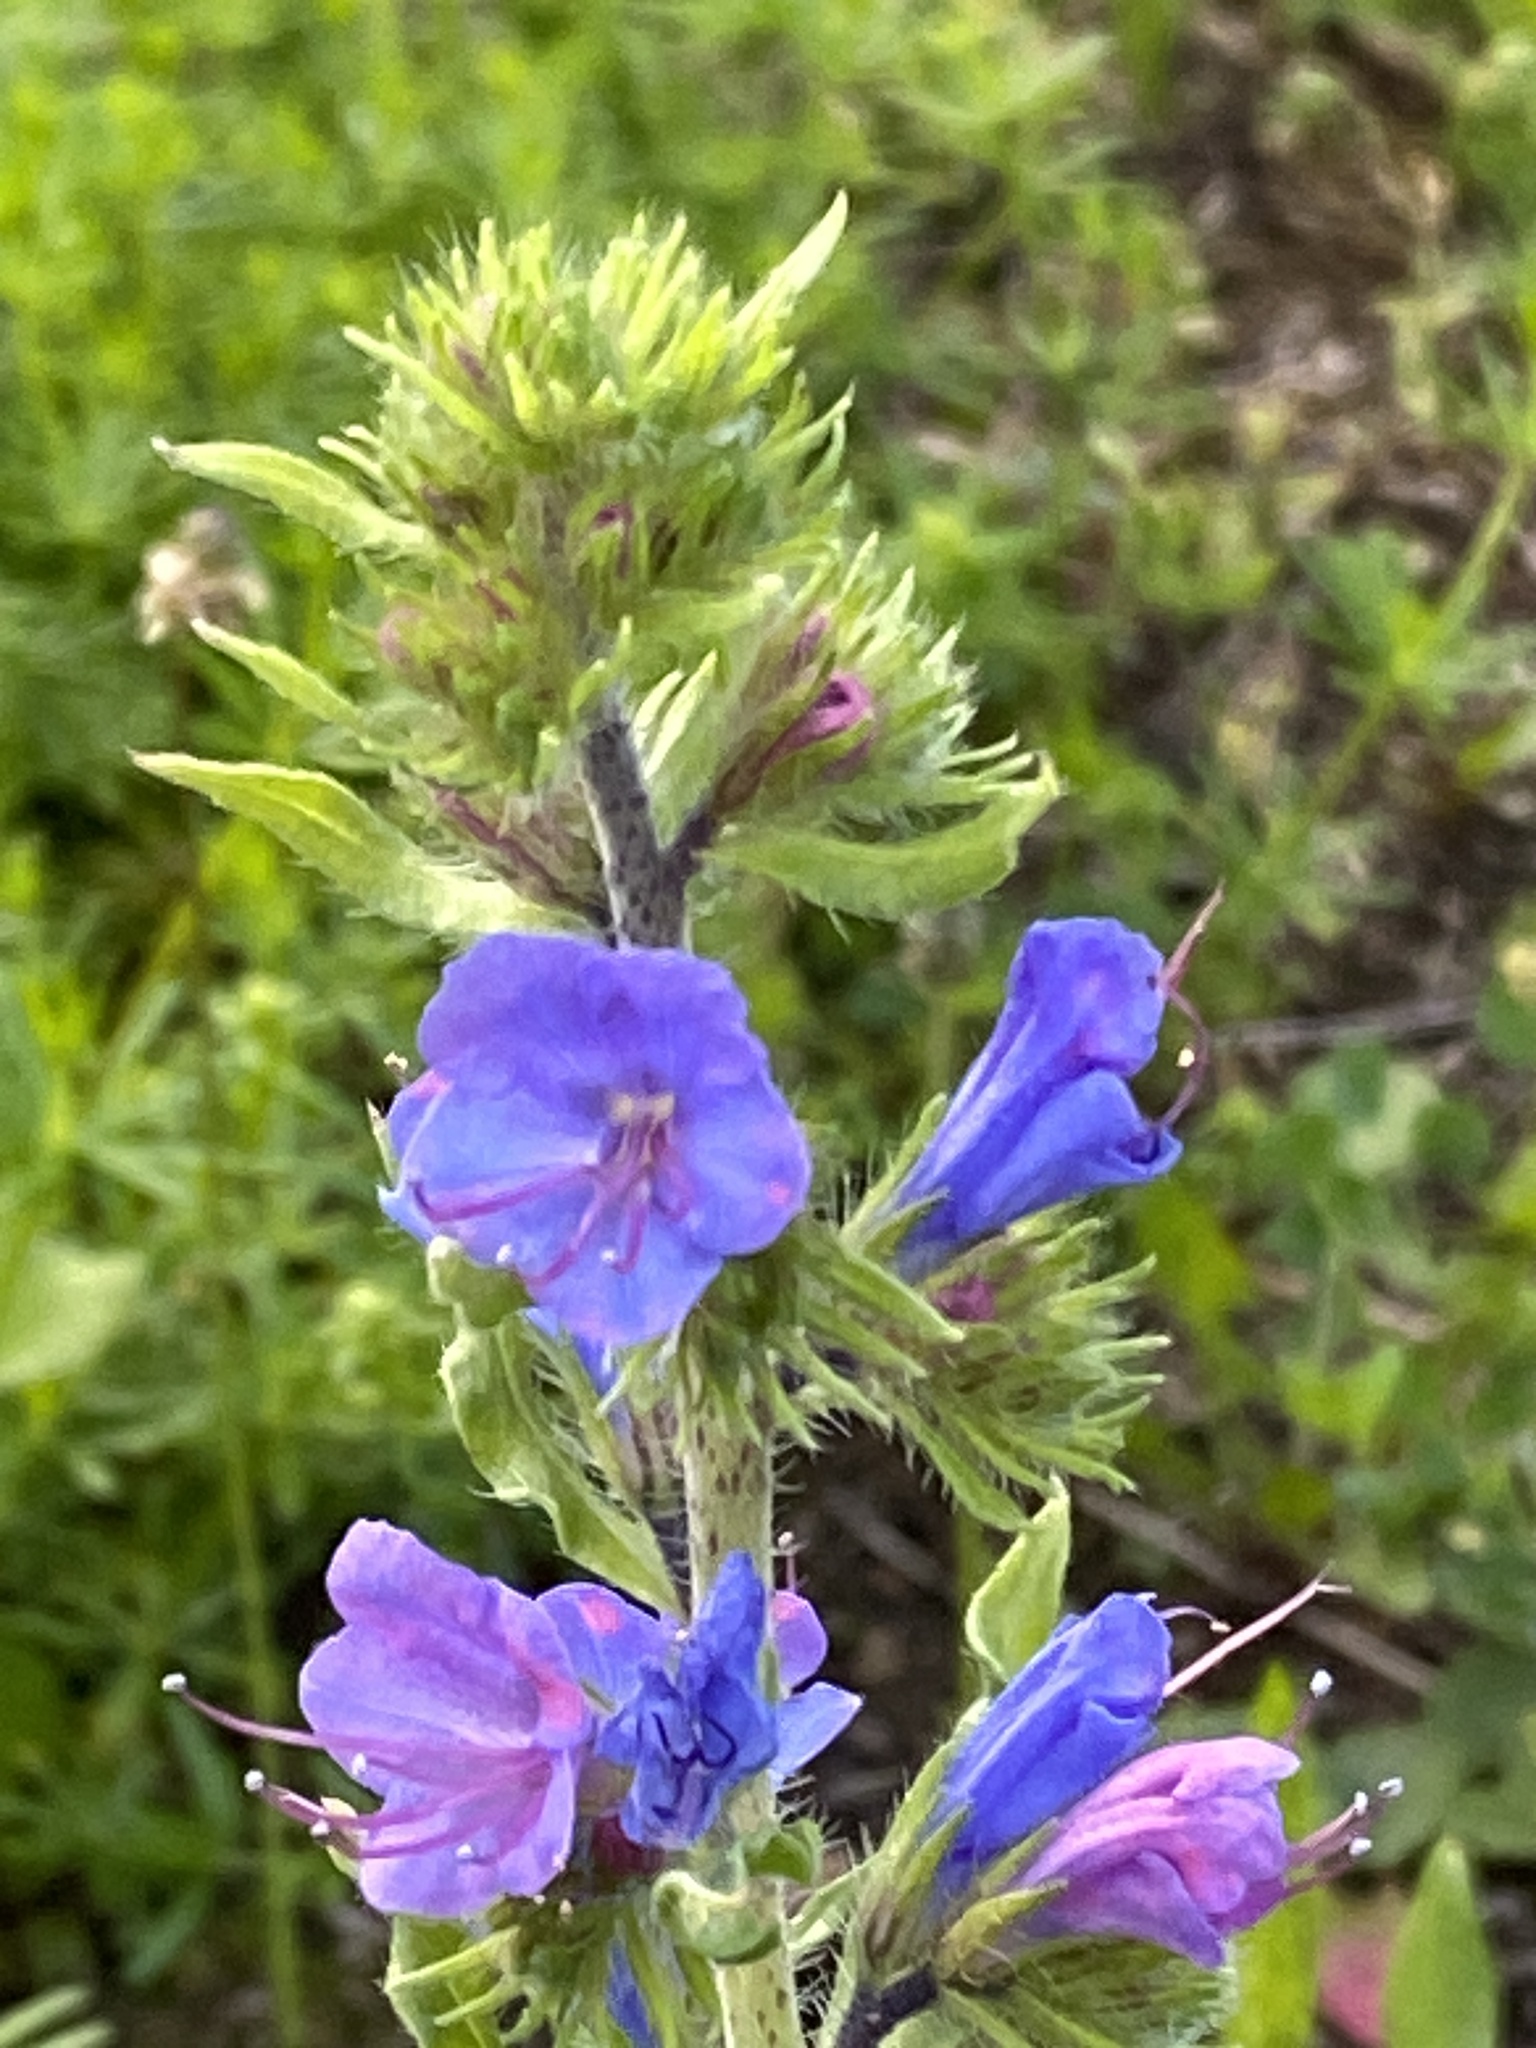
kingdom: Plantae
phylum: Tracheophyta
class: Magnoliopsida
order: Boraginales
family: Boraginaceae
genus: Echium
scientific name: Echium vulgare
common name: Common viper's bugloss
